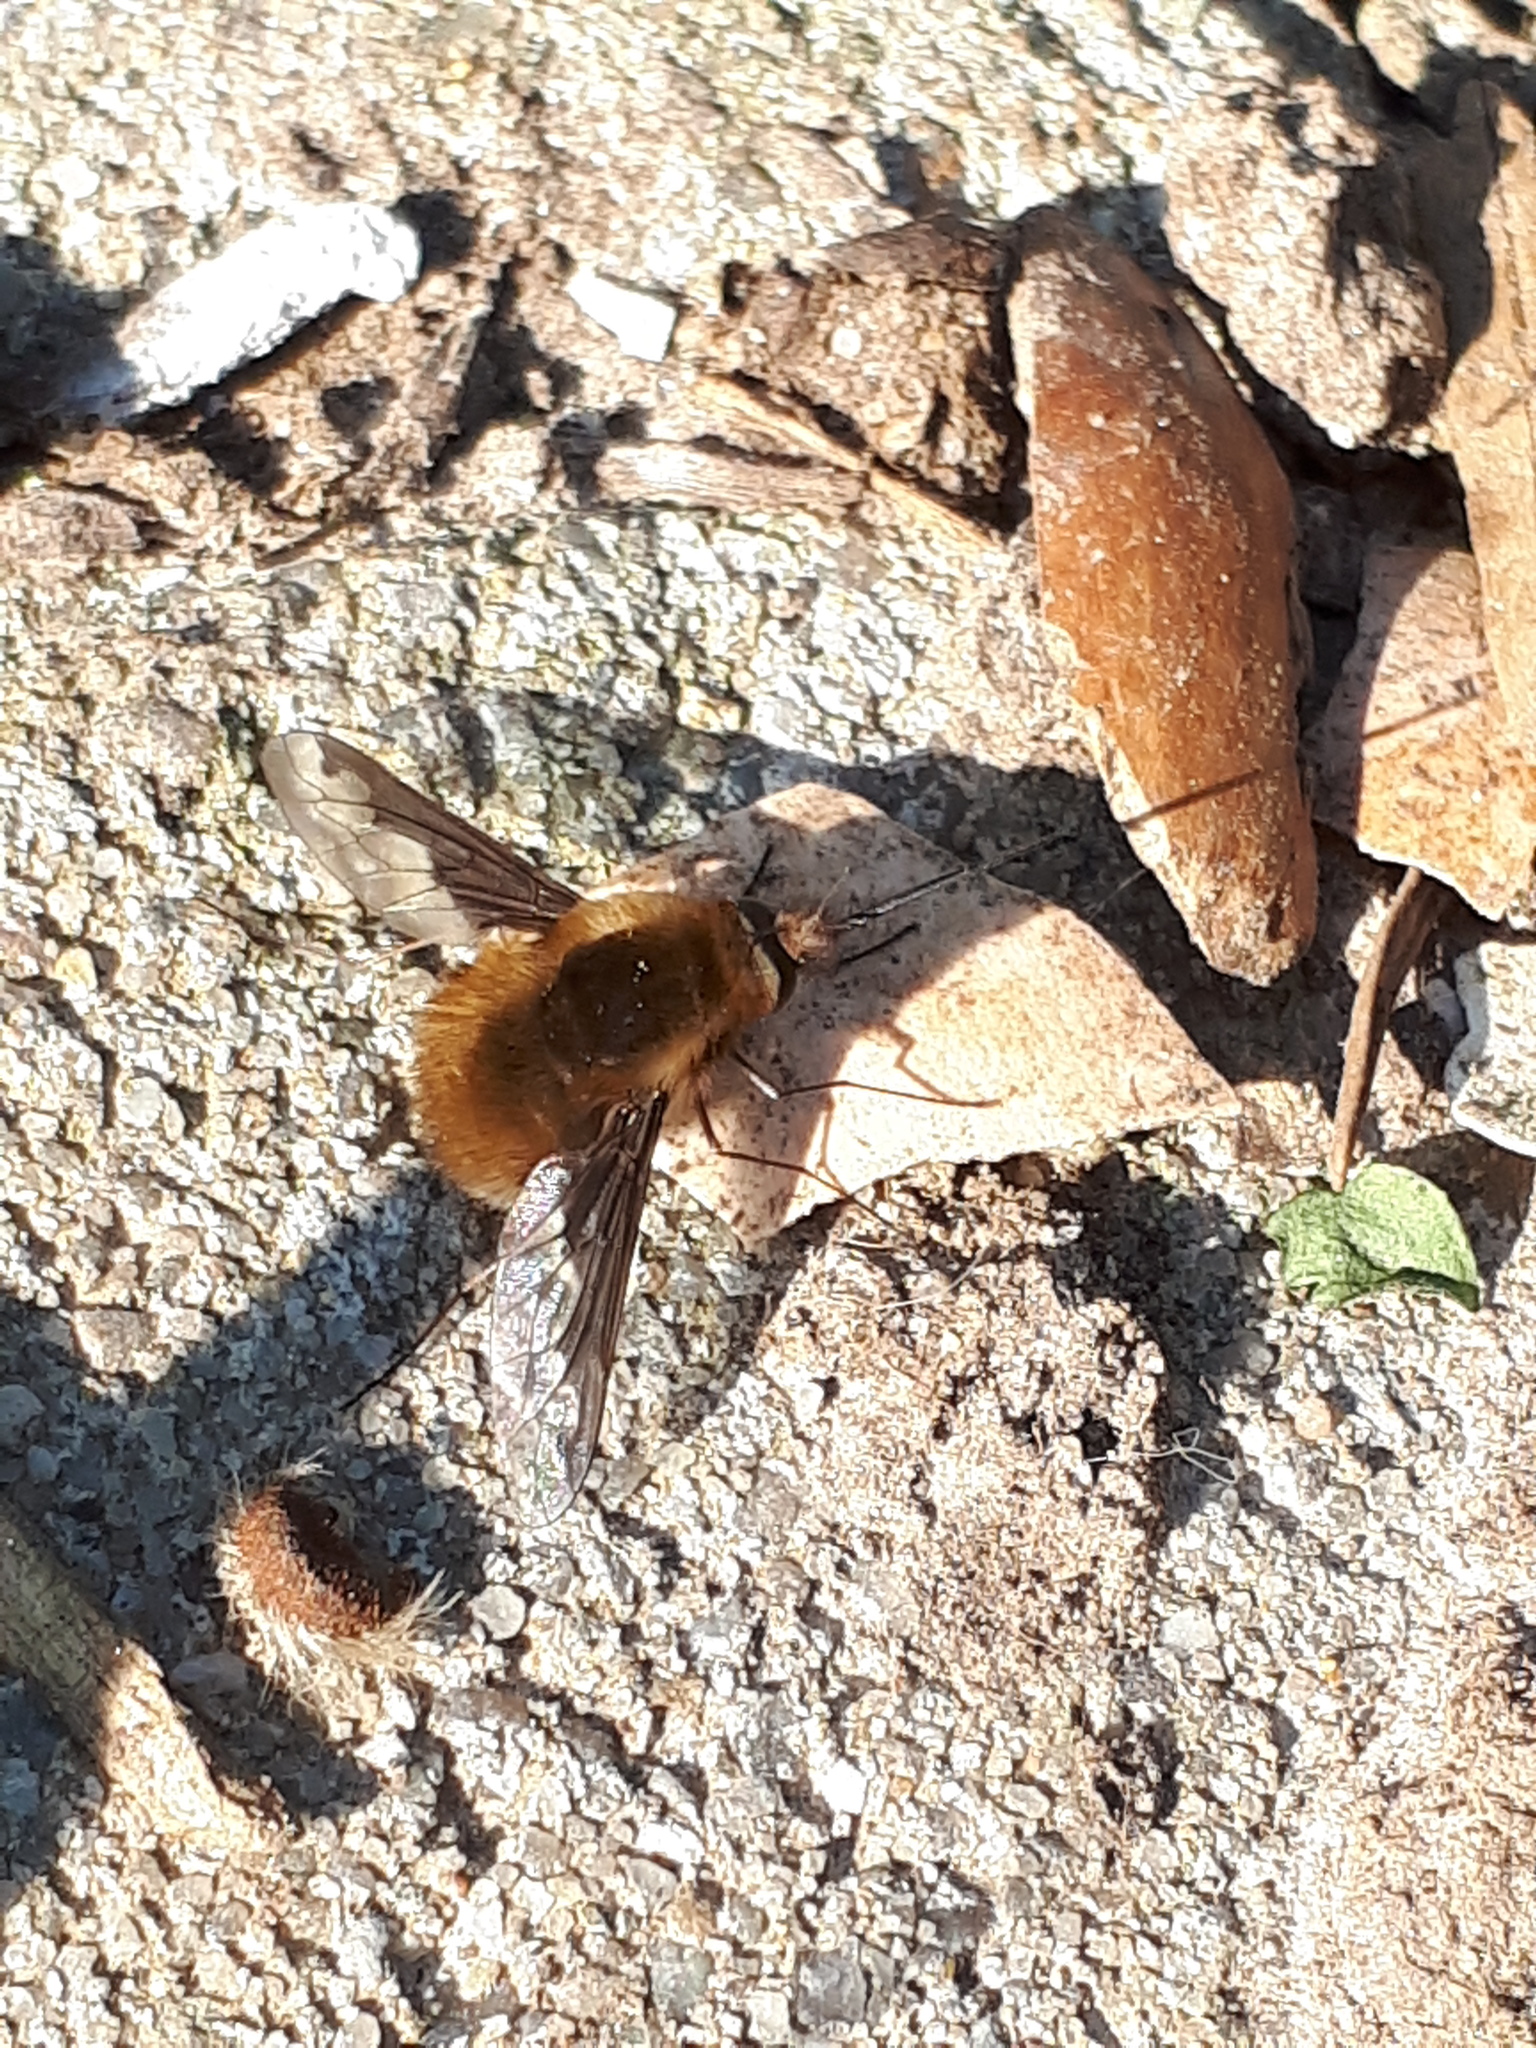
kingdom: Animalia
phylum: Arthropoda
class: Insecta
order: Diptera
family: Bombyliidae
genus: Bombylius
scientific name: Bombylius major
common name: Bee fly
